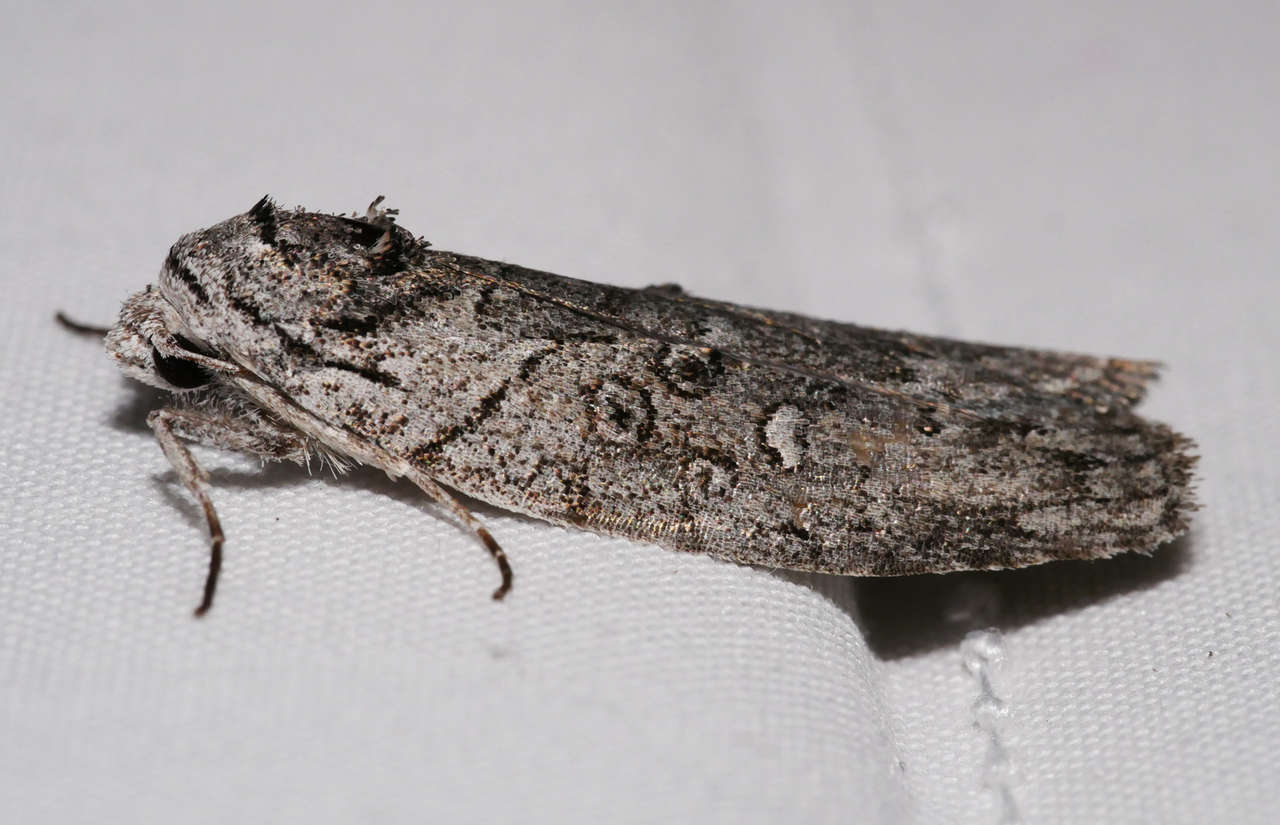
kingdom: Animalia
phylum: Arthropoda
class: Insecta
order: Lepidoptera
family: Nolidae
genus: Elesma
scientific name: Elesma subglauca
